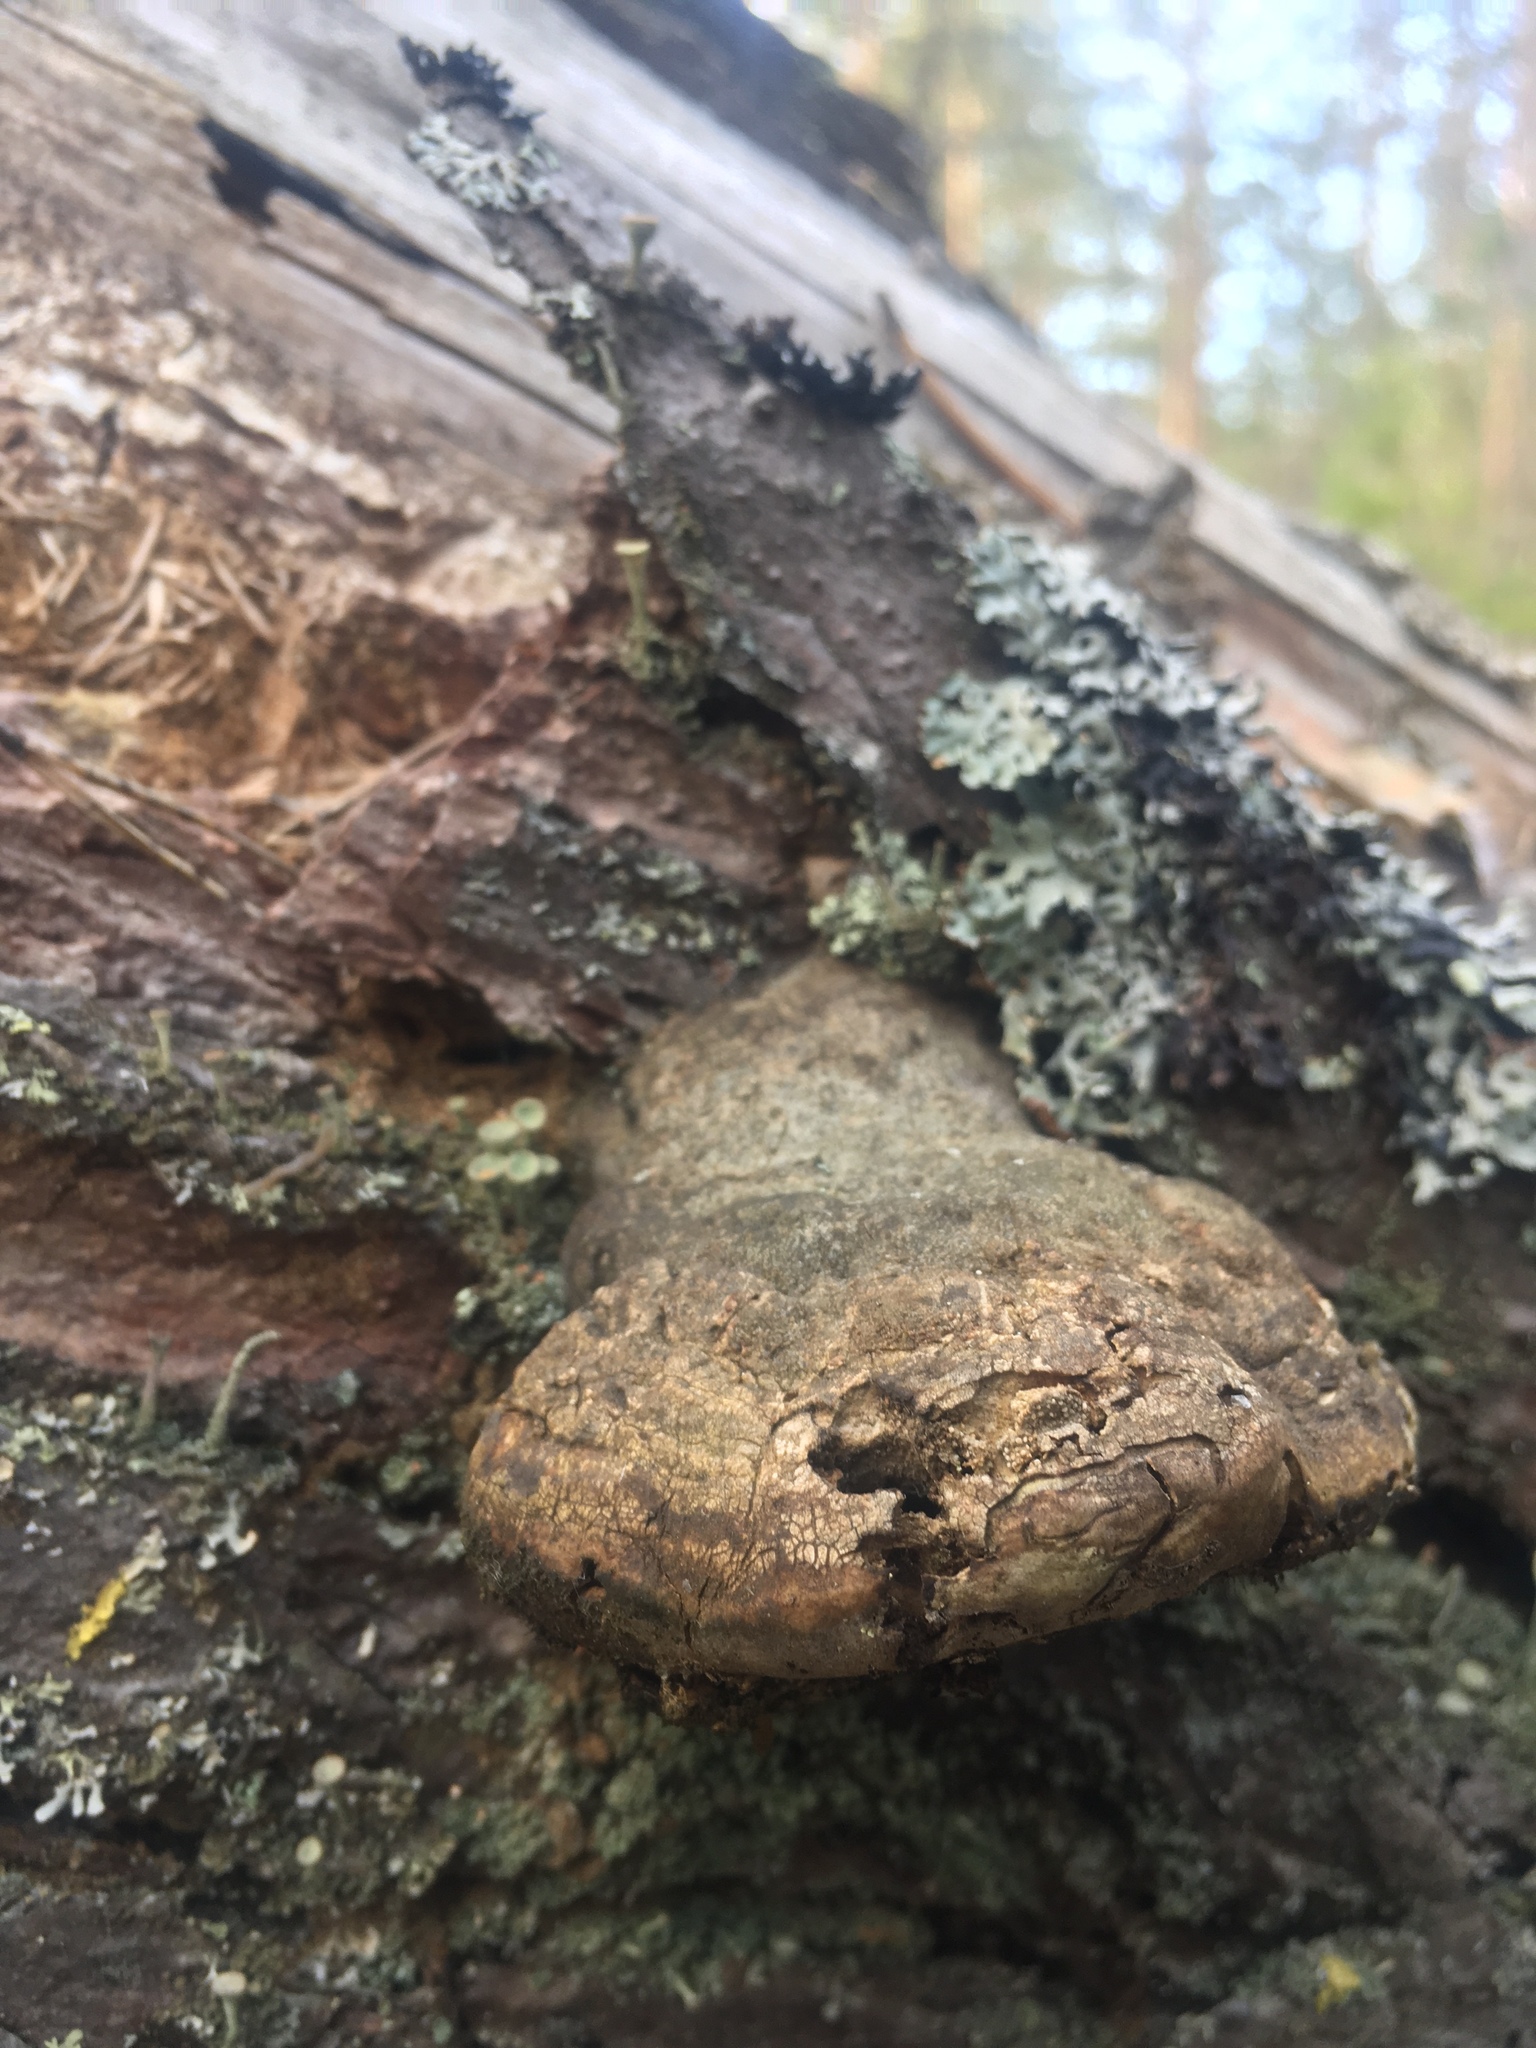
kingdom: Fungi
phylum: Basidiomycota
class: Agaricomycetes
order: Polyporales
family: Fomitopsidaceae
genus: Fomitopsis
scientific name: Fomitopsis pinicola
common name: Red-belted bracket
